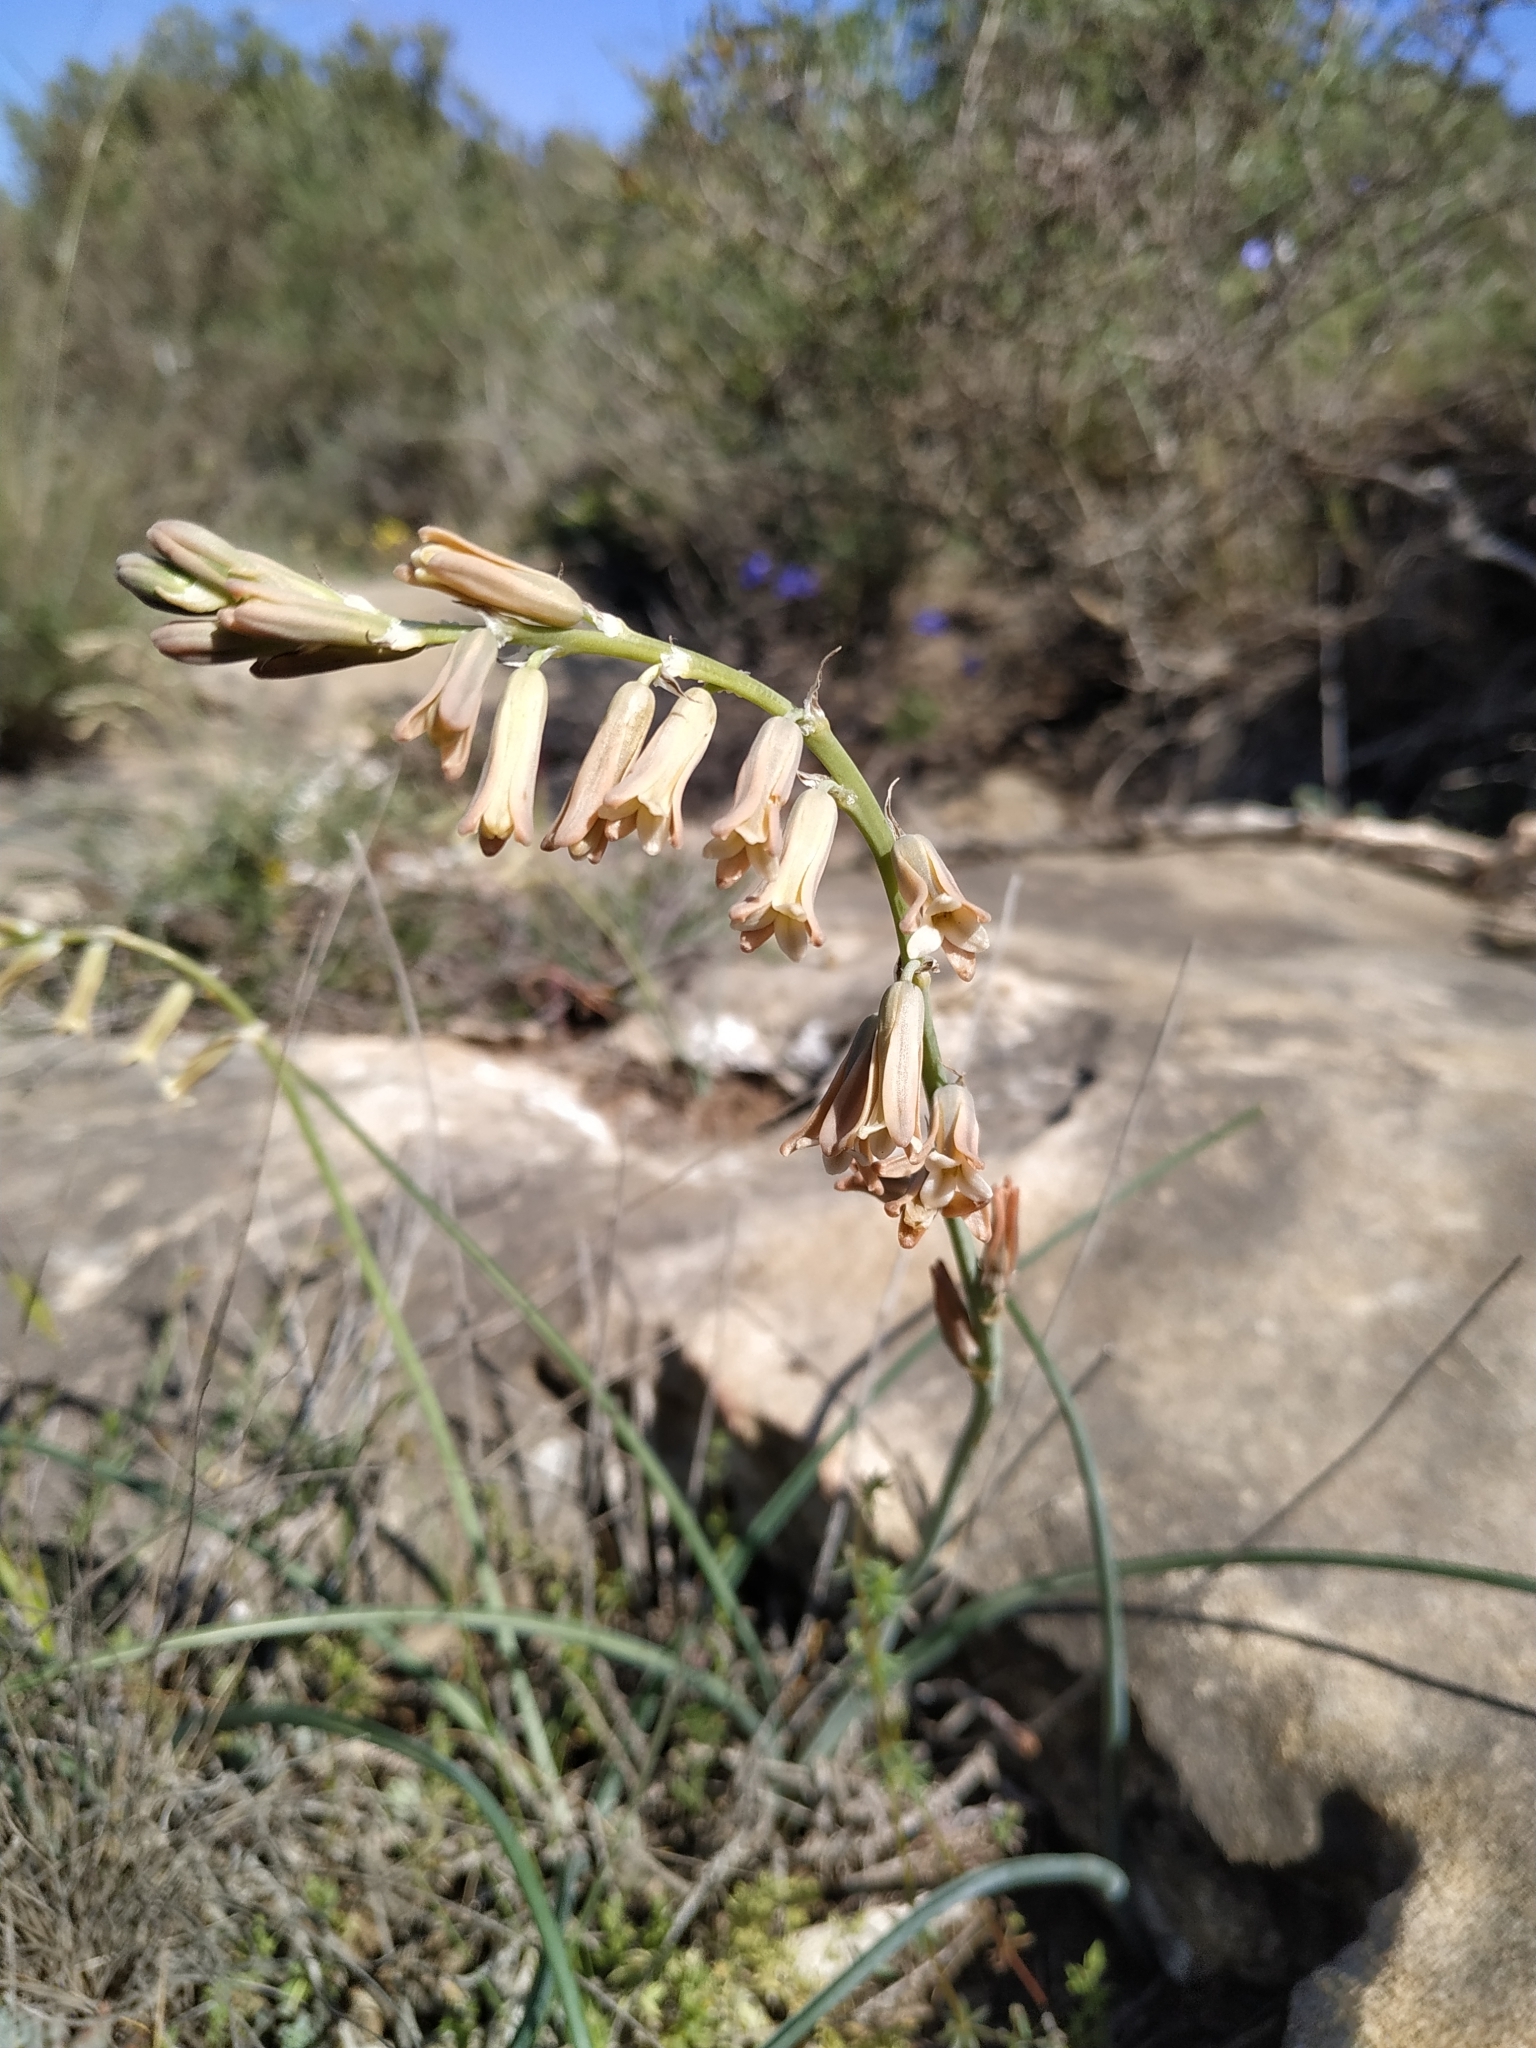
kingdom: Plantae
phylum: Tracheophyta
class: Liliopsida
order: Asparagales
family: Asparagaceae
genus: Dipcadi
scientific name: Dipcadi serotinum
